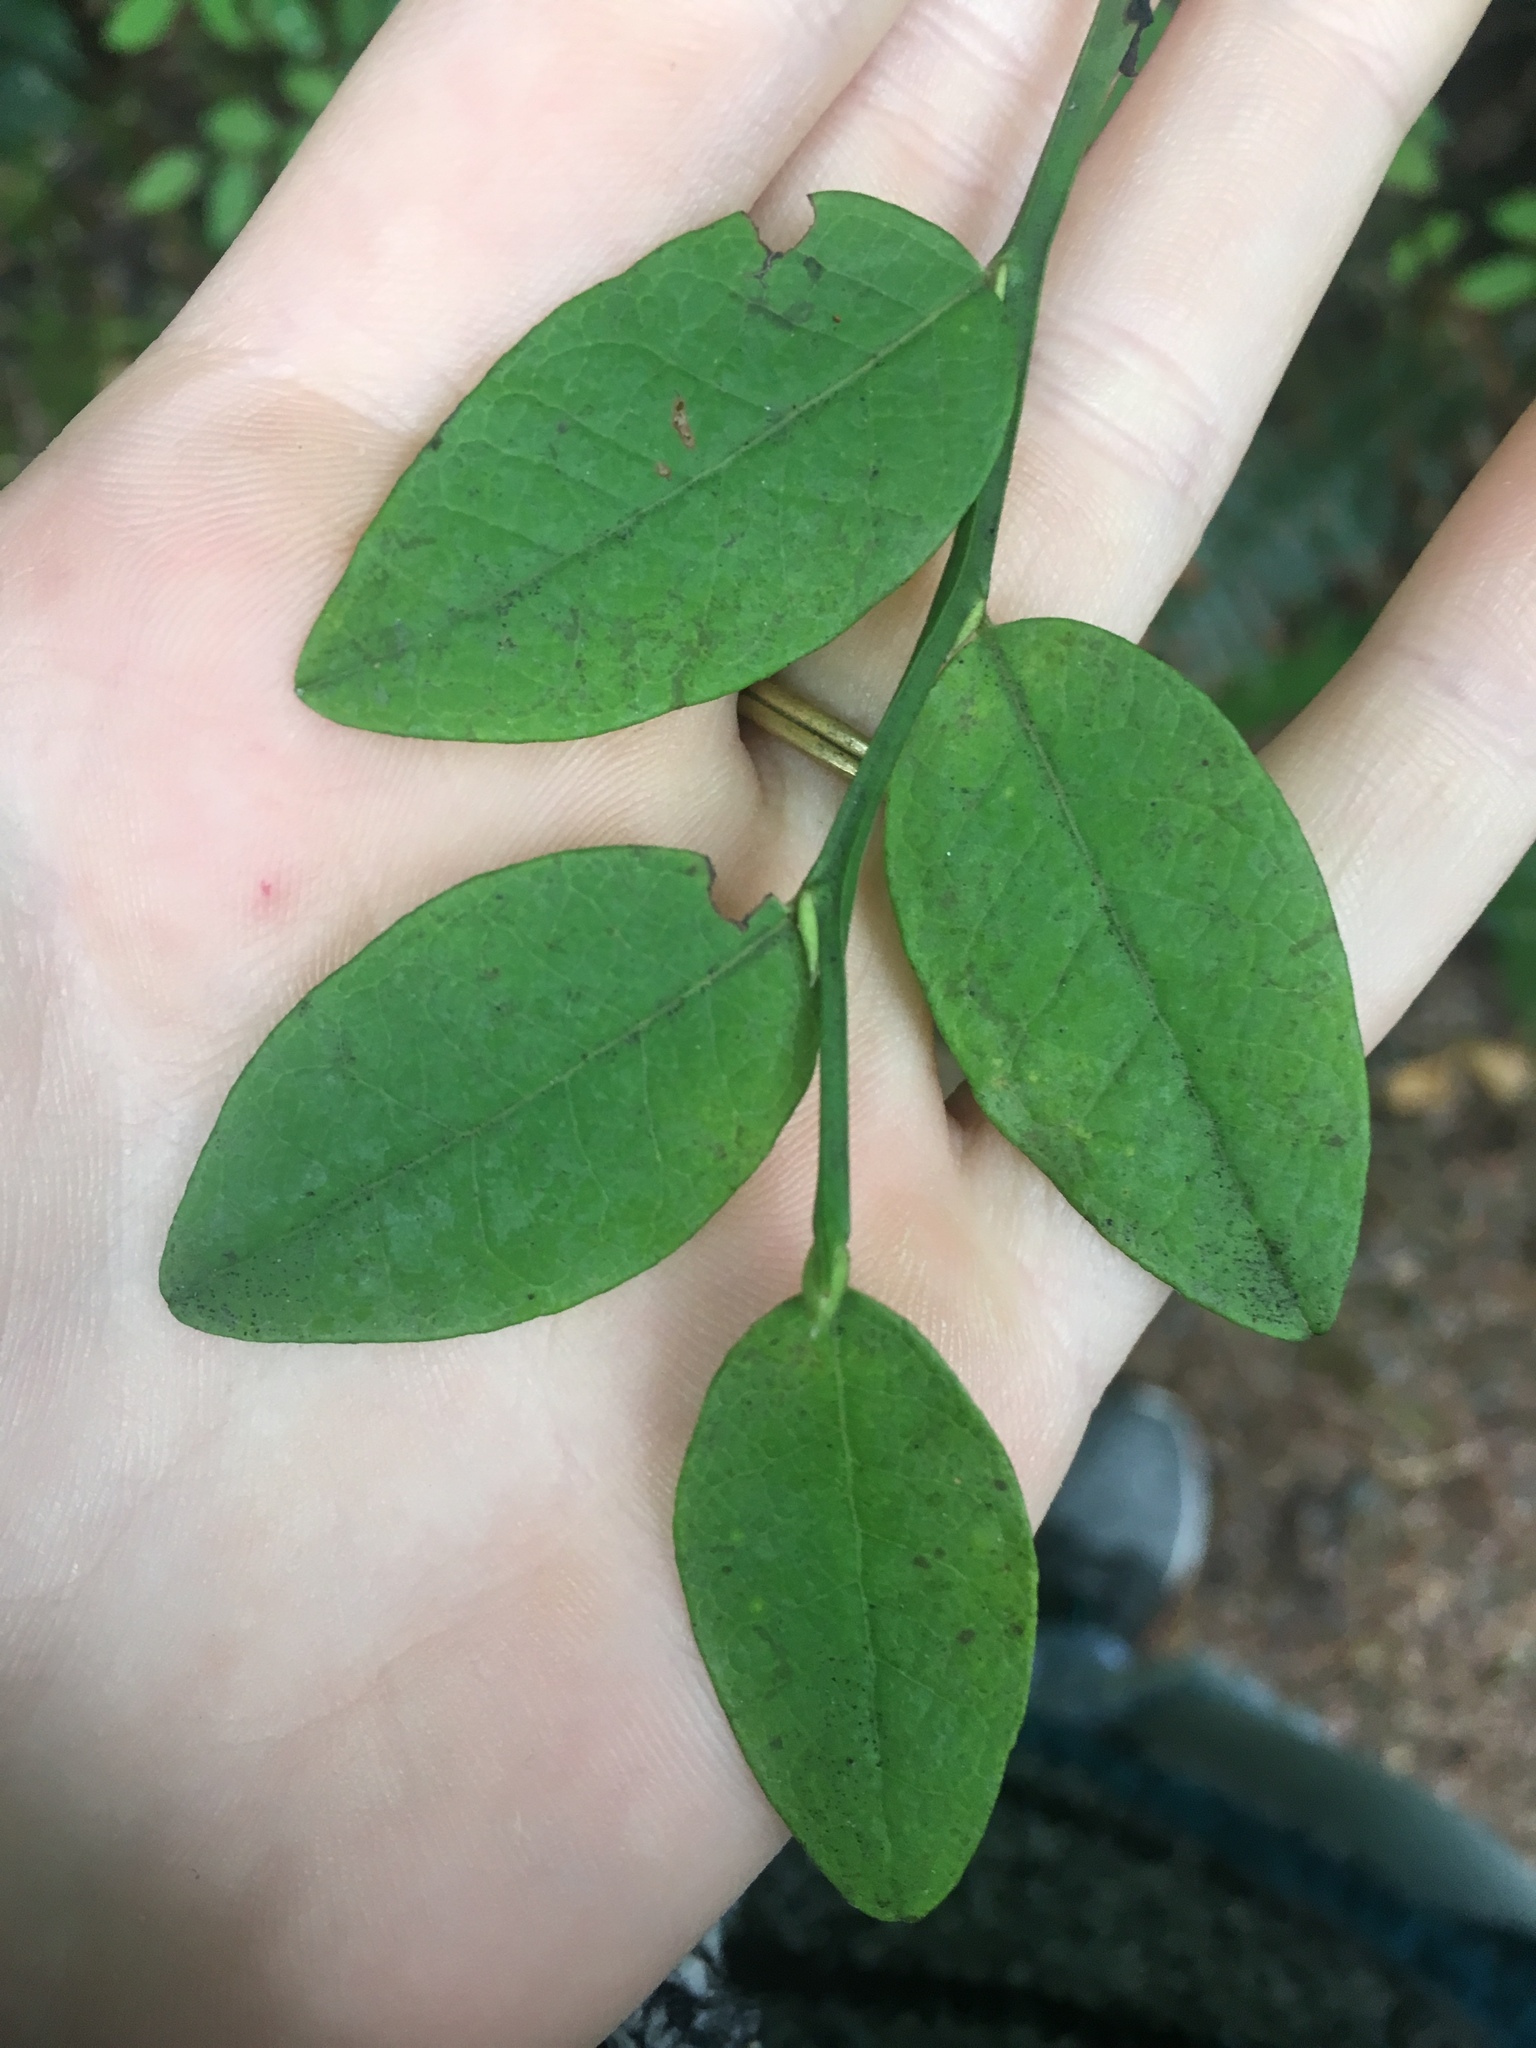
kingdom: Plantae
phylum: Tracheophyta
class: Magnoliopsida
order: Ericales
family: Ericaceae
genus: Vaccinium
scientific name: Vaccinium parvifolium
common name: Red-huckleberry
